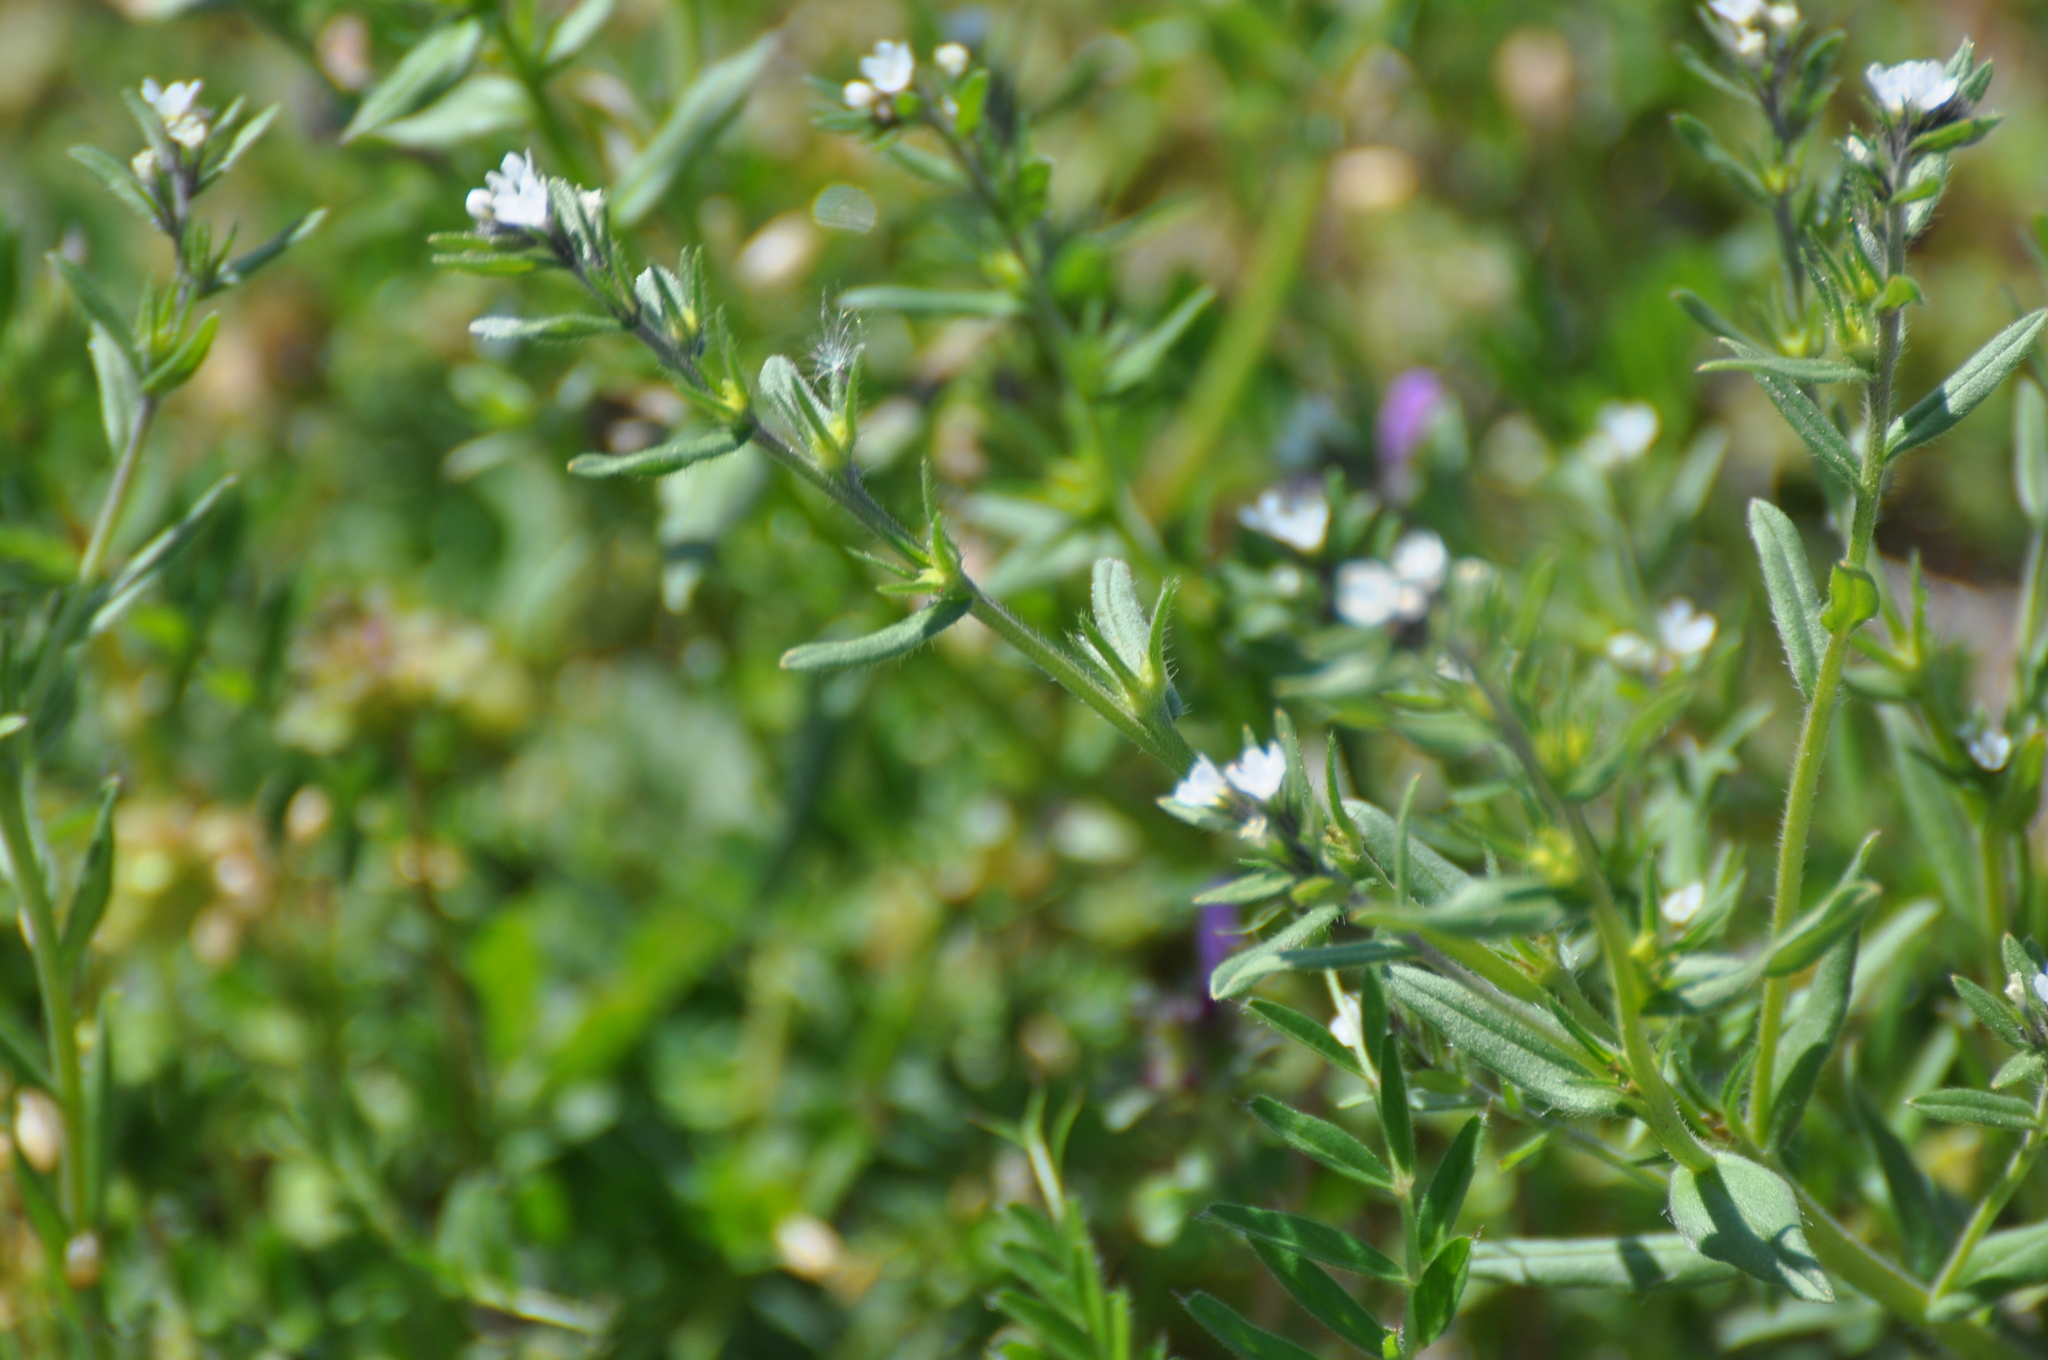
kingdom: Plantae
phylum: Tracheophyta
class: Magnoliopsida
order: Boraginales
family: Boraginaceae
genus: Buglossoides
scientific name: Buglossoides arvensis
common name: Corn gromwell
